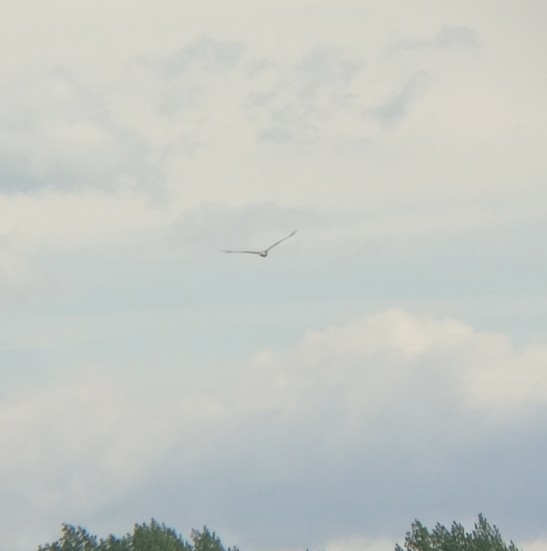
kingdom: Animalia
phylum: Chordata
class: Aves
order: Accipitriformes
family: Accipitridae
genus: Circus
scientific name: Circus approximans
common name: Swamp harrier
